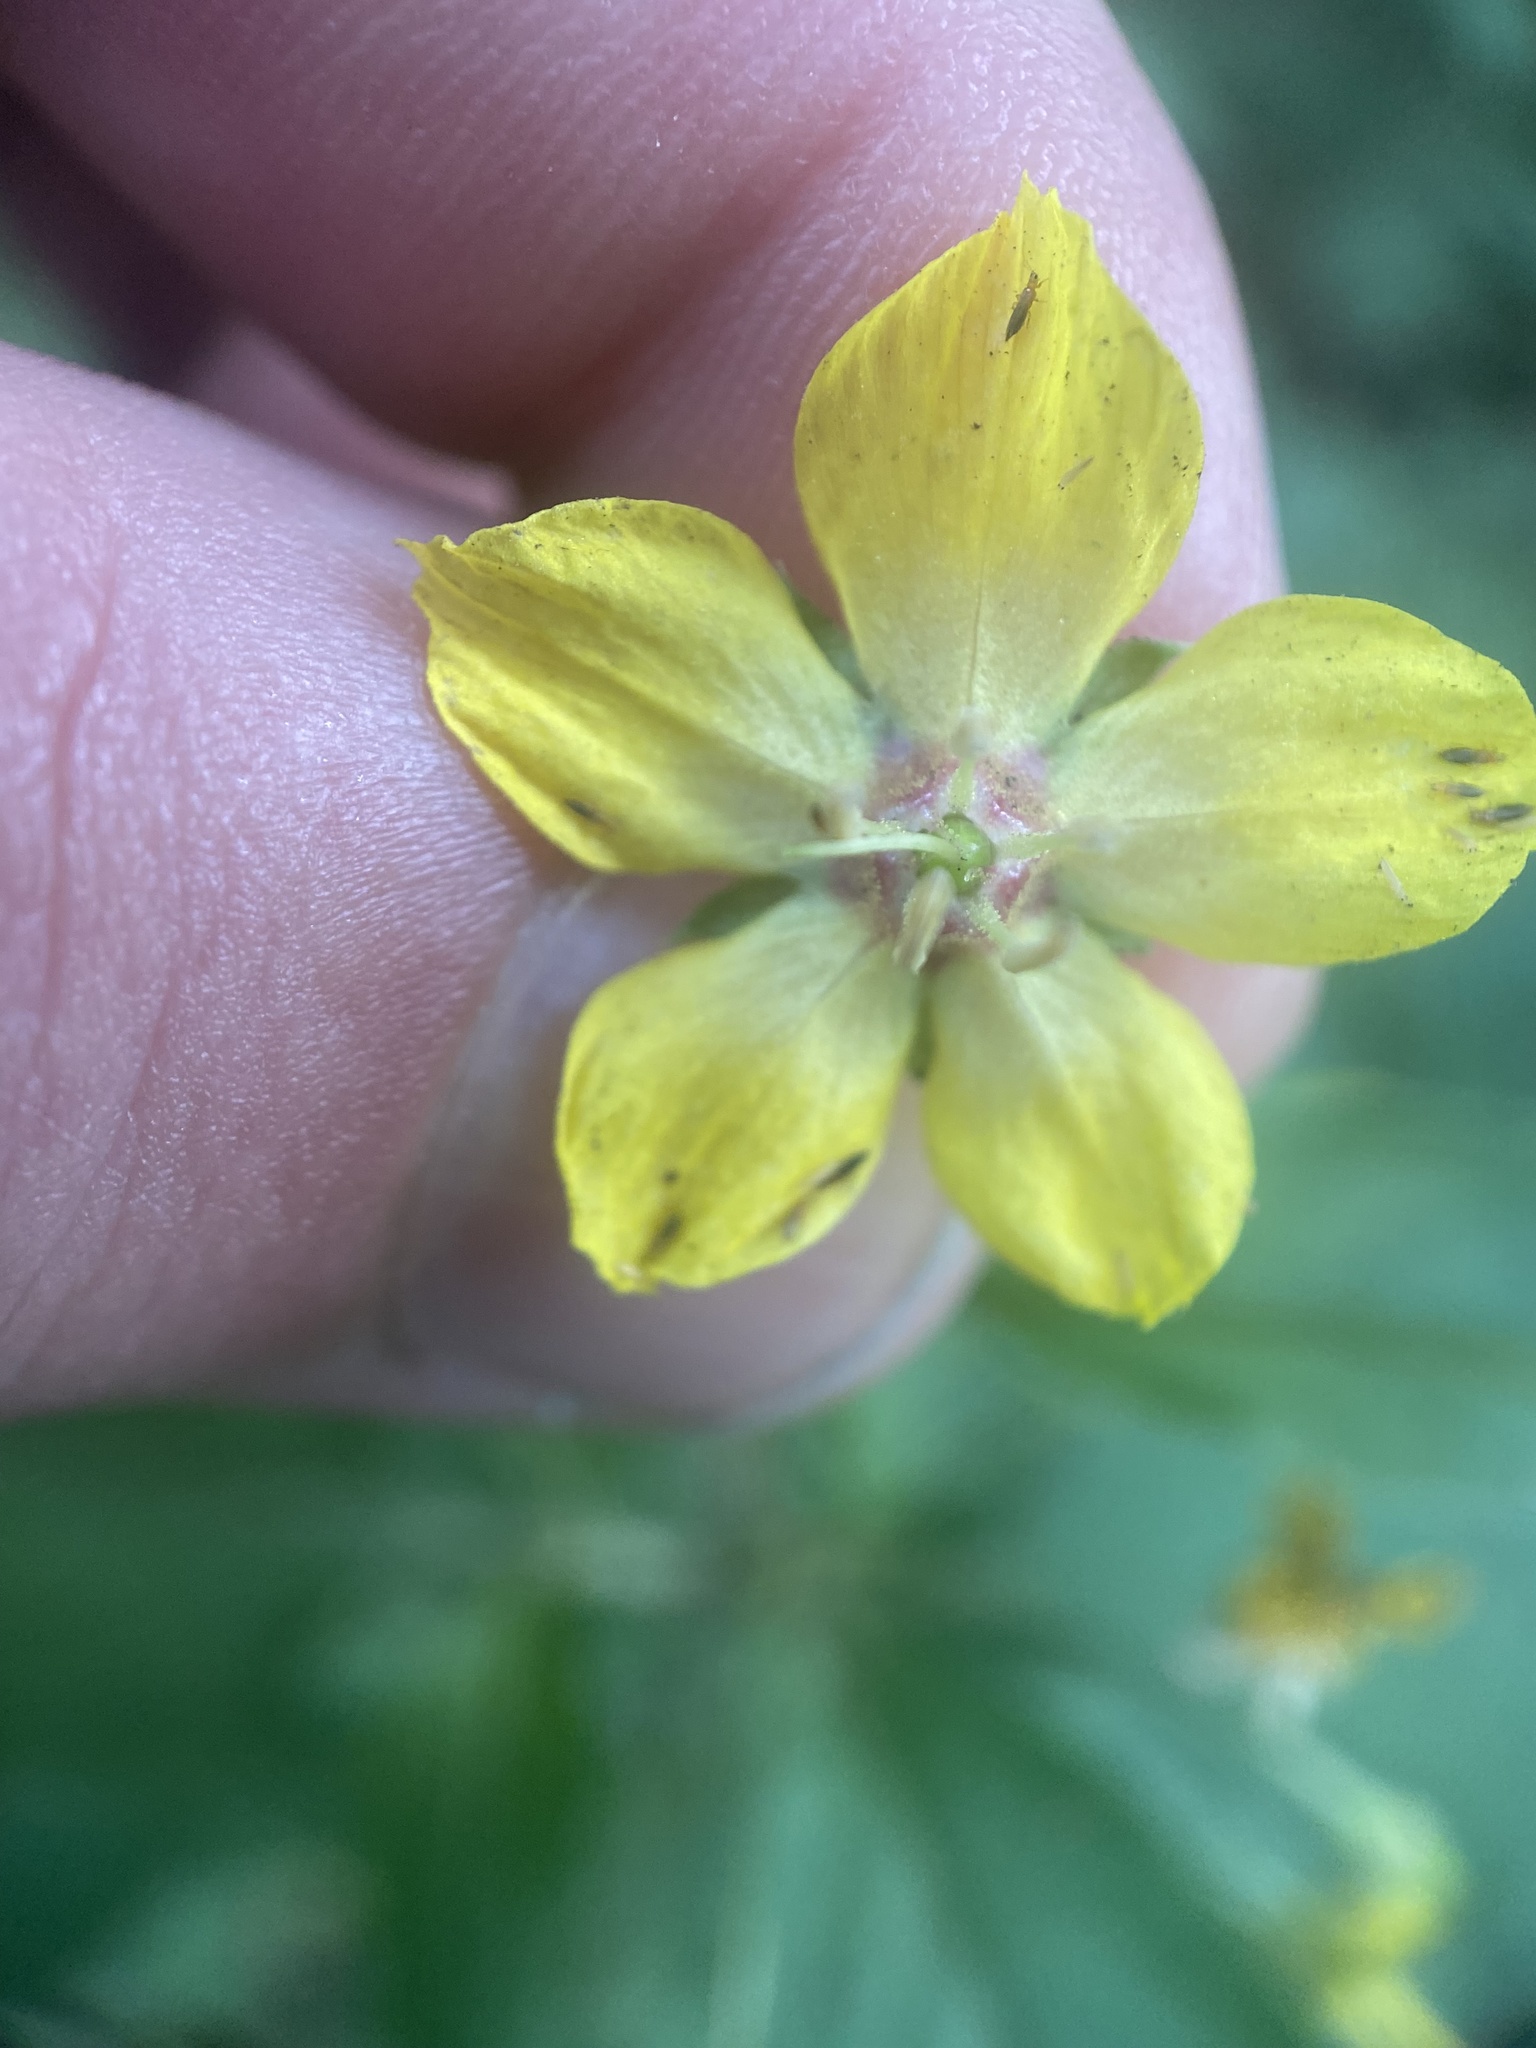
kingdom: Plantae
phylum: Tracheophyta
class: Magnoliopsida
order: Ericales
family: Primulaceae
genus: Lysimachia
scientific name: Lysimachia ciliata
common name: Fringed loosestrife
